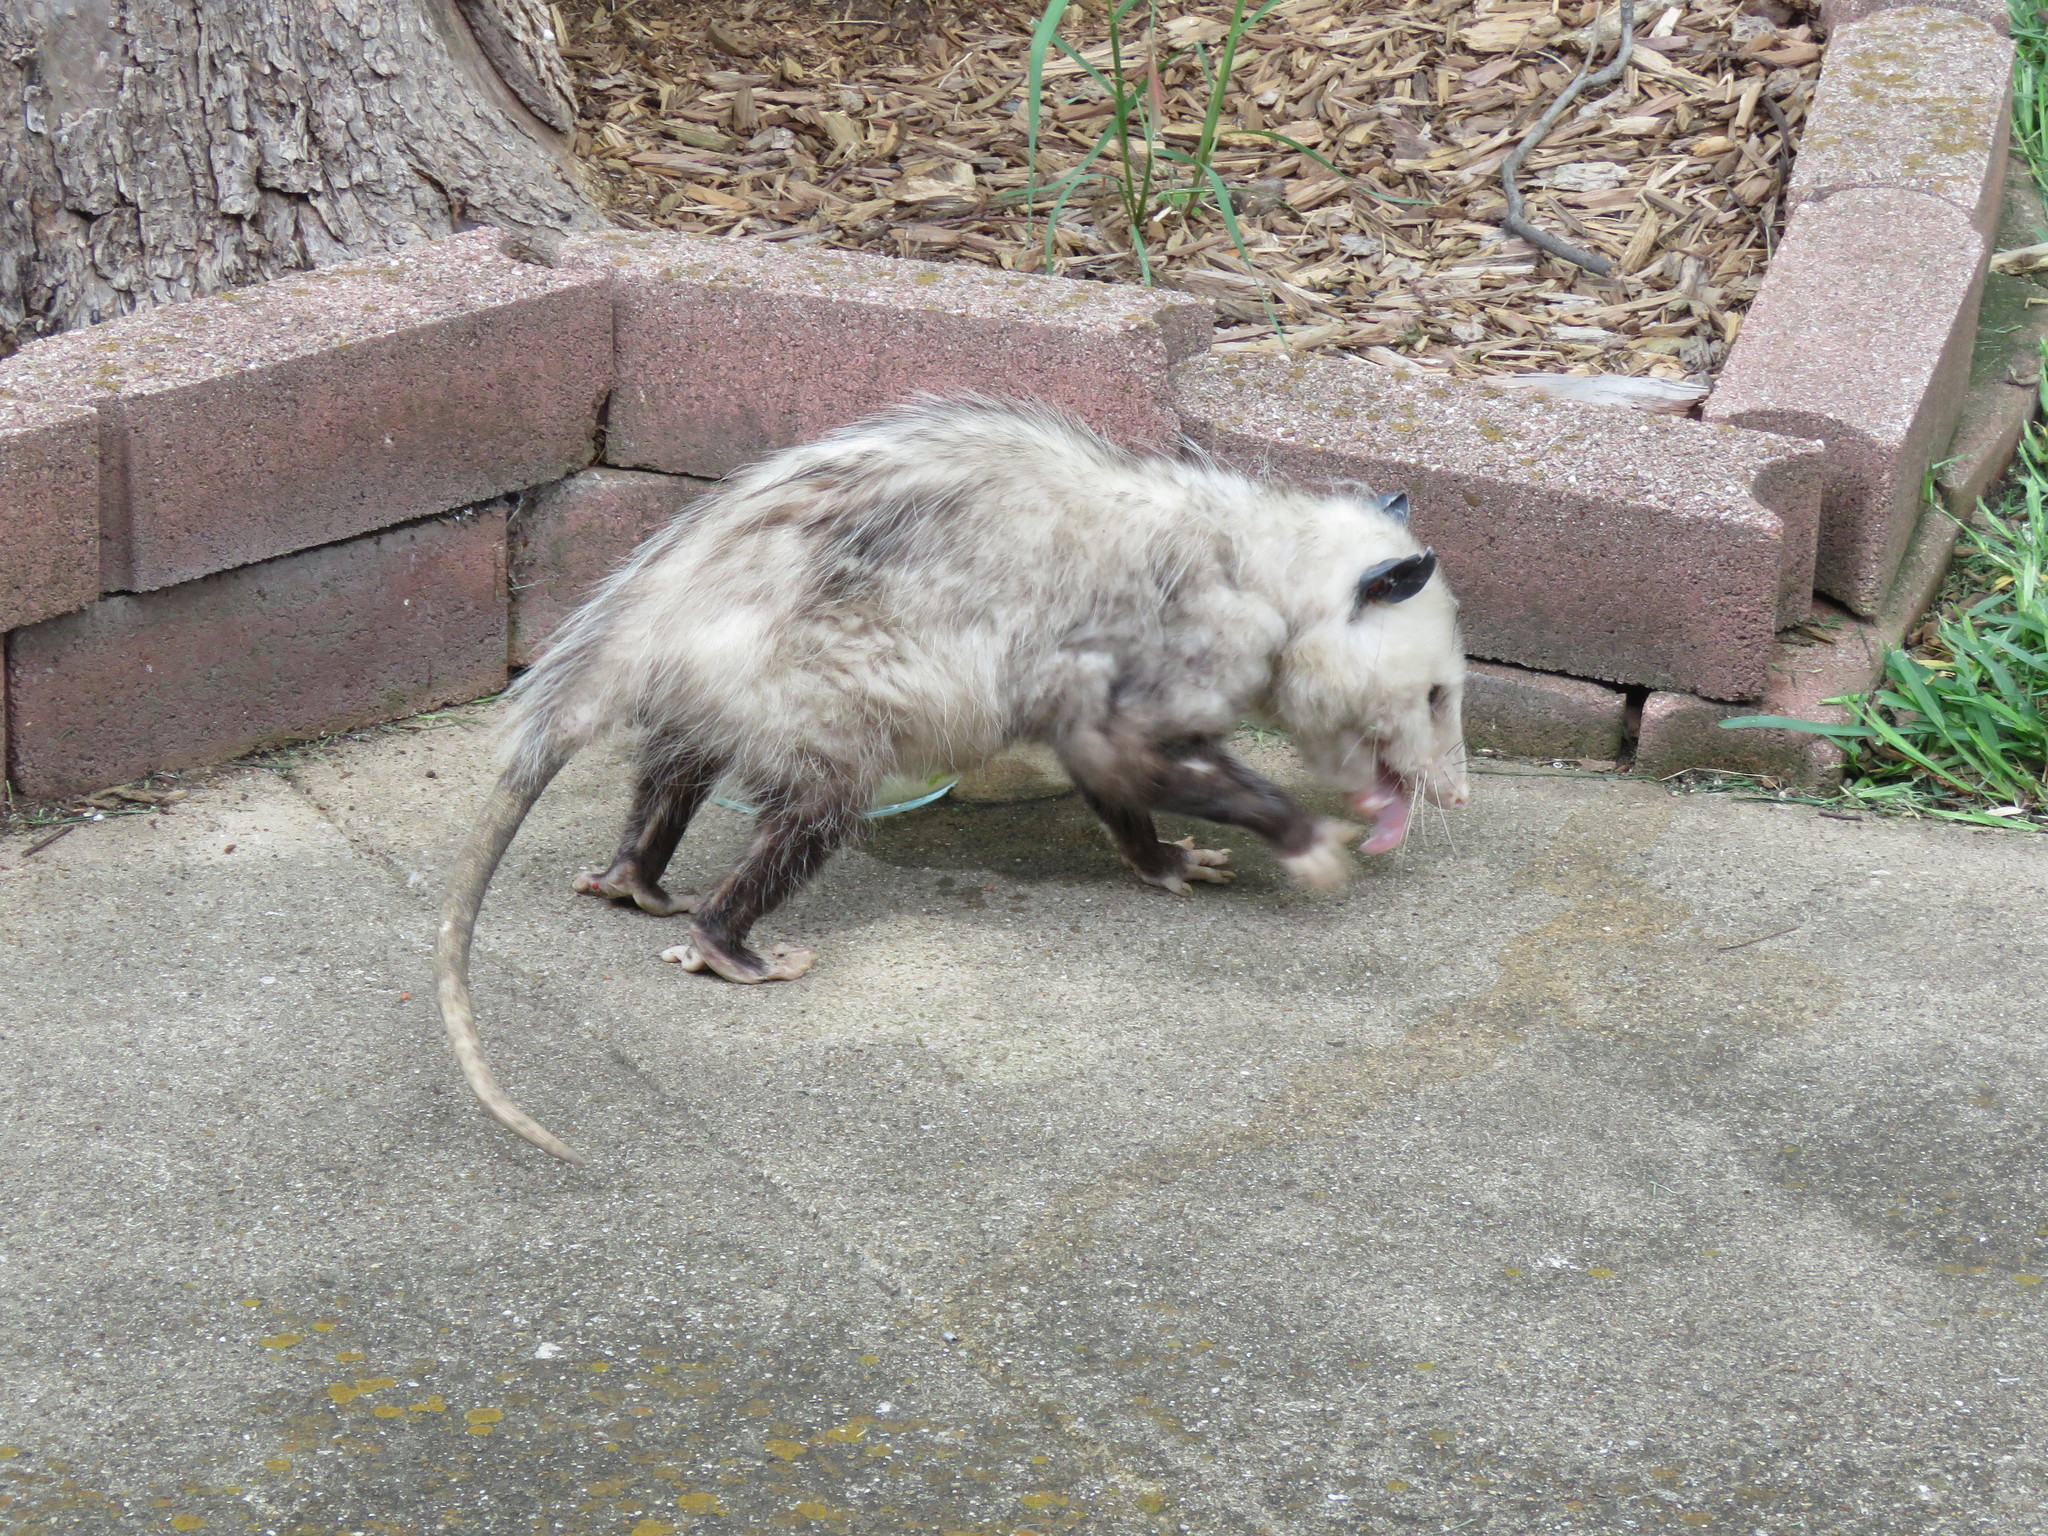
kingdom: Animalia
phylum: Chordata
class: Mammalia
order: Didelphimorphia
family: Didelphidae
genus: Didelphis
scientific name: Didelphis virginiana
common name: Virginia opossum
